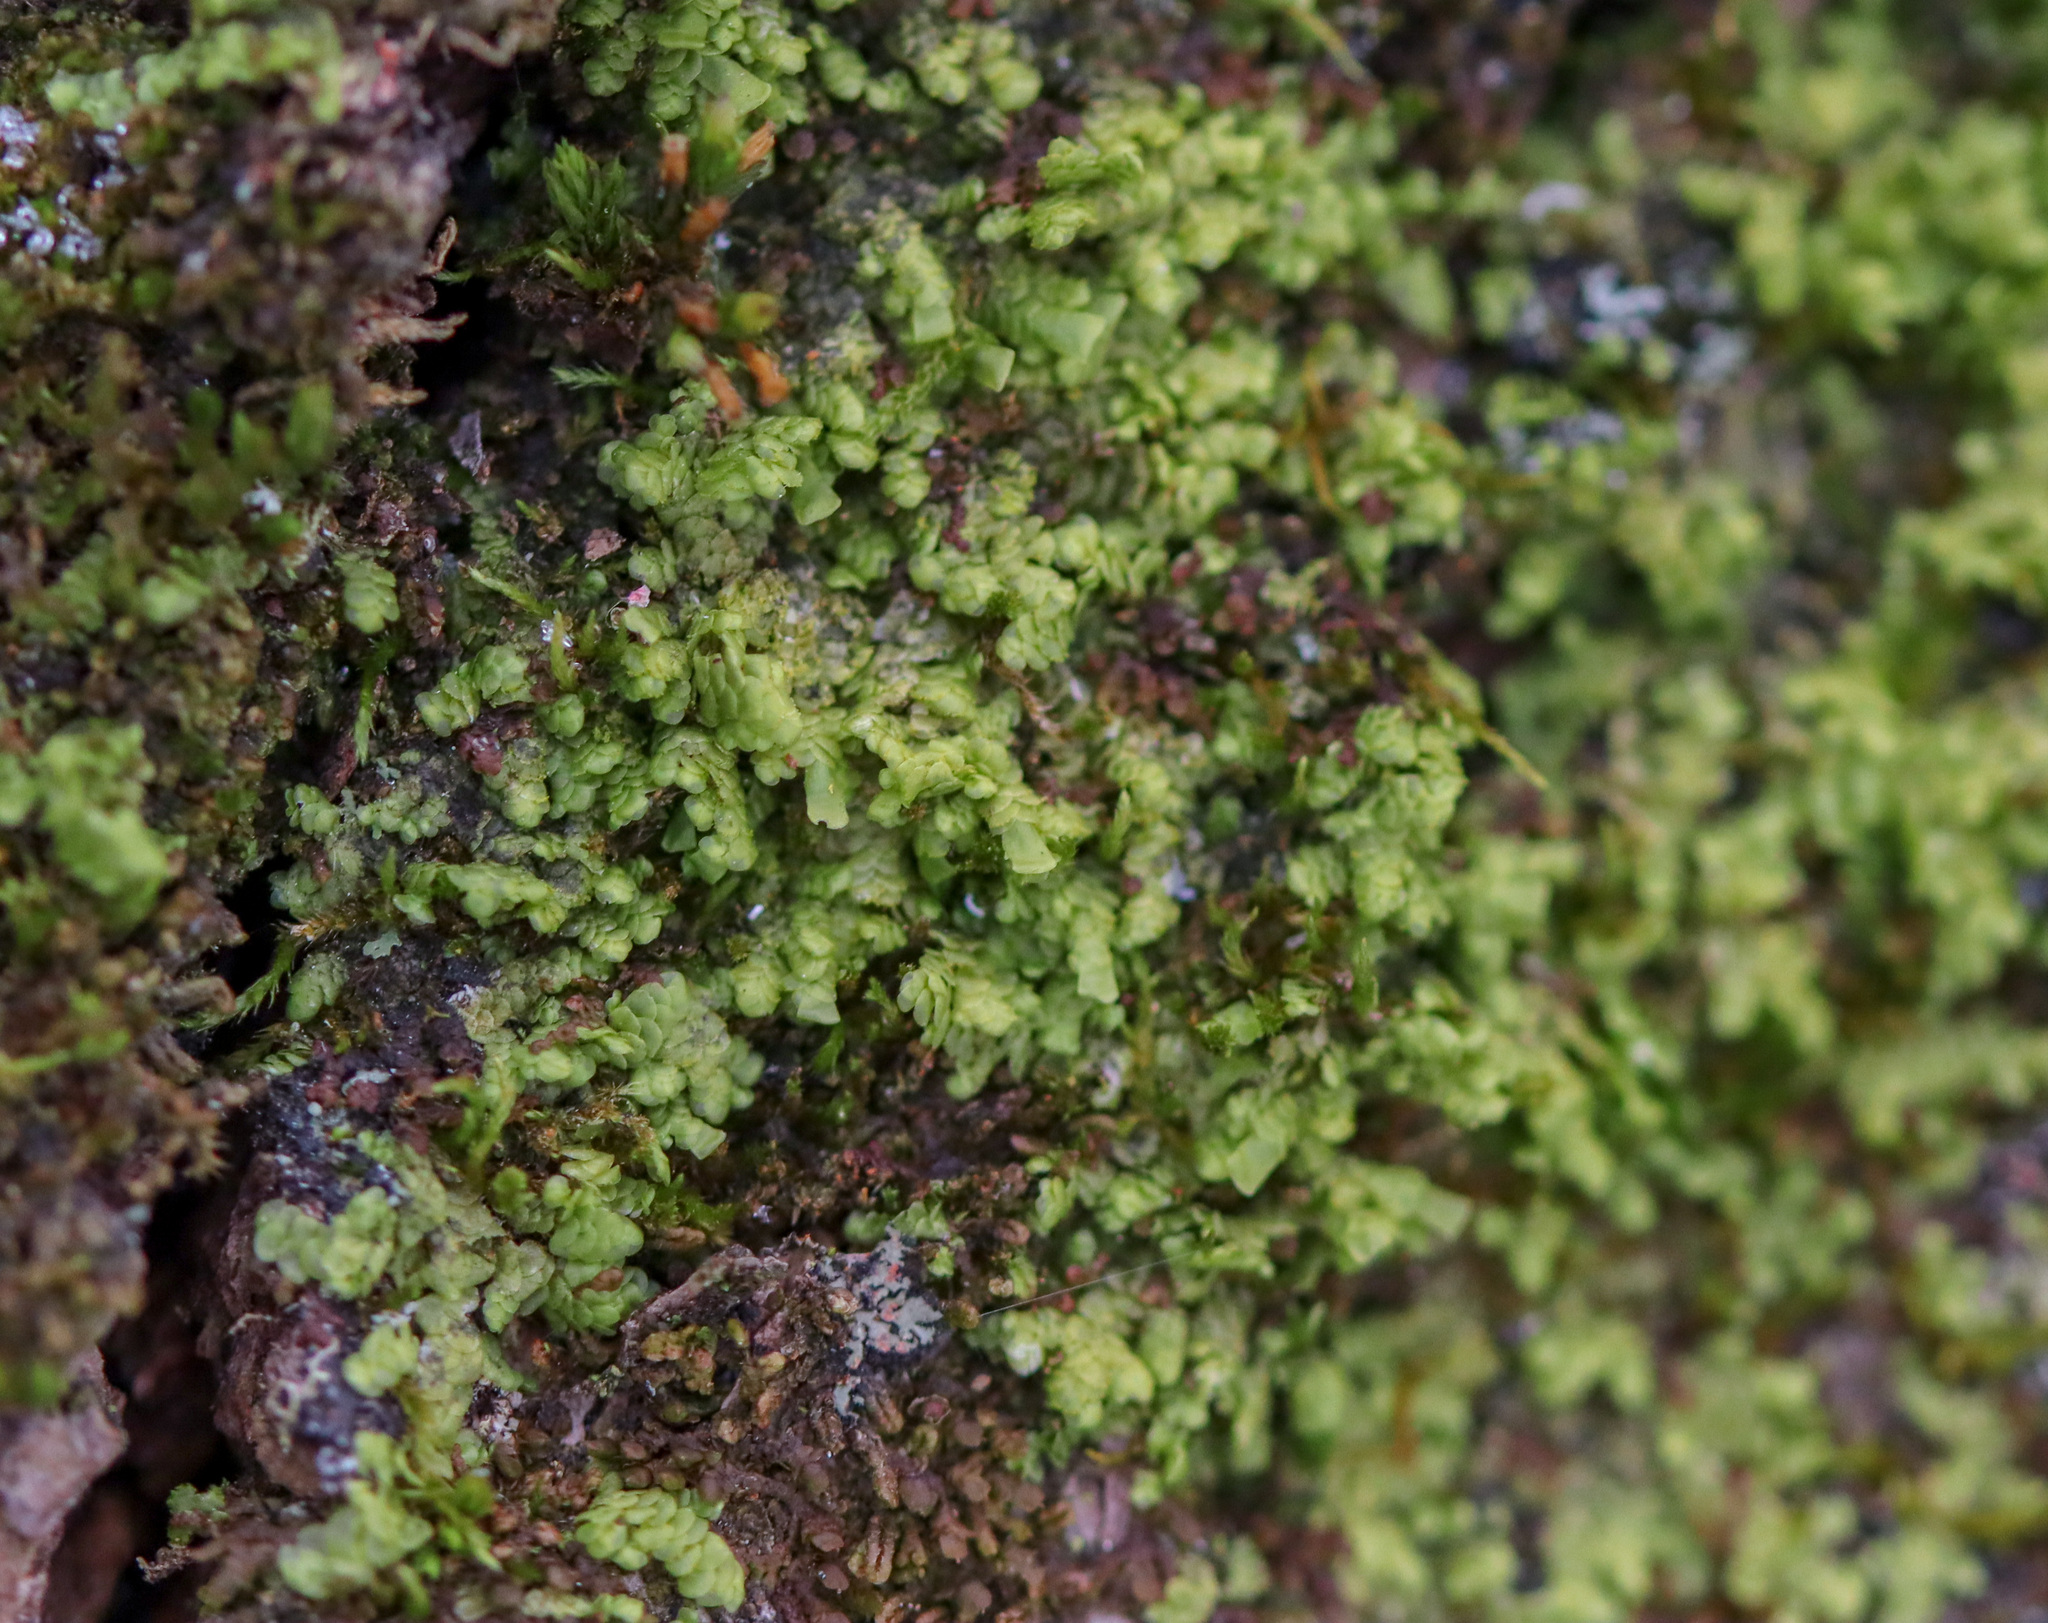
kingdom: Plantae
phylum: Marchantiophyta
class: Jungermanniopsida
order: Porellales
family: Radulaceae
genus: Radula
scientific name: Radula complanata
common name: Flat-leaved scalewort
